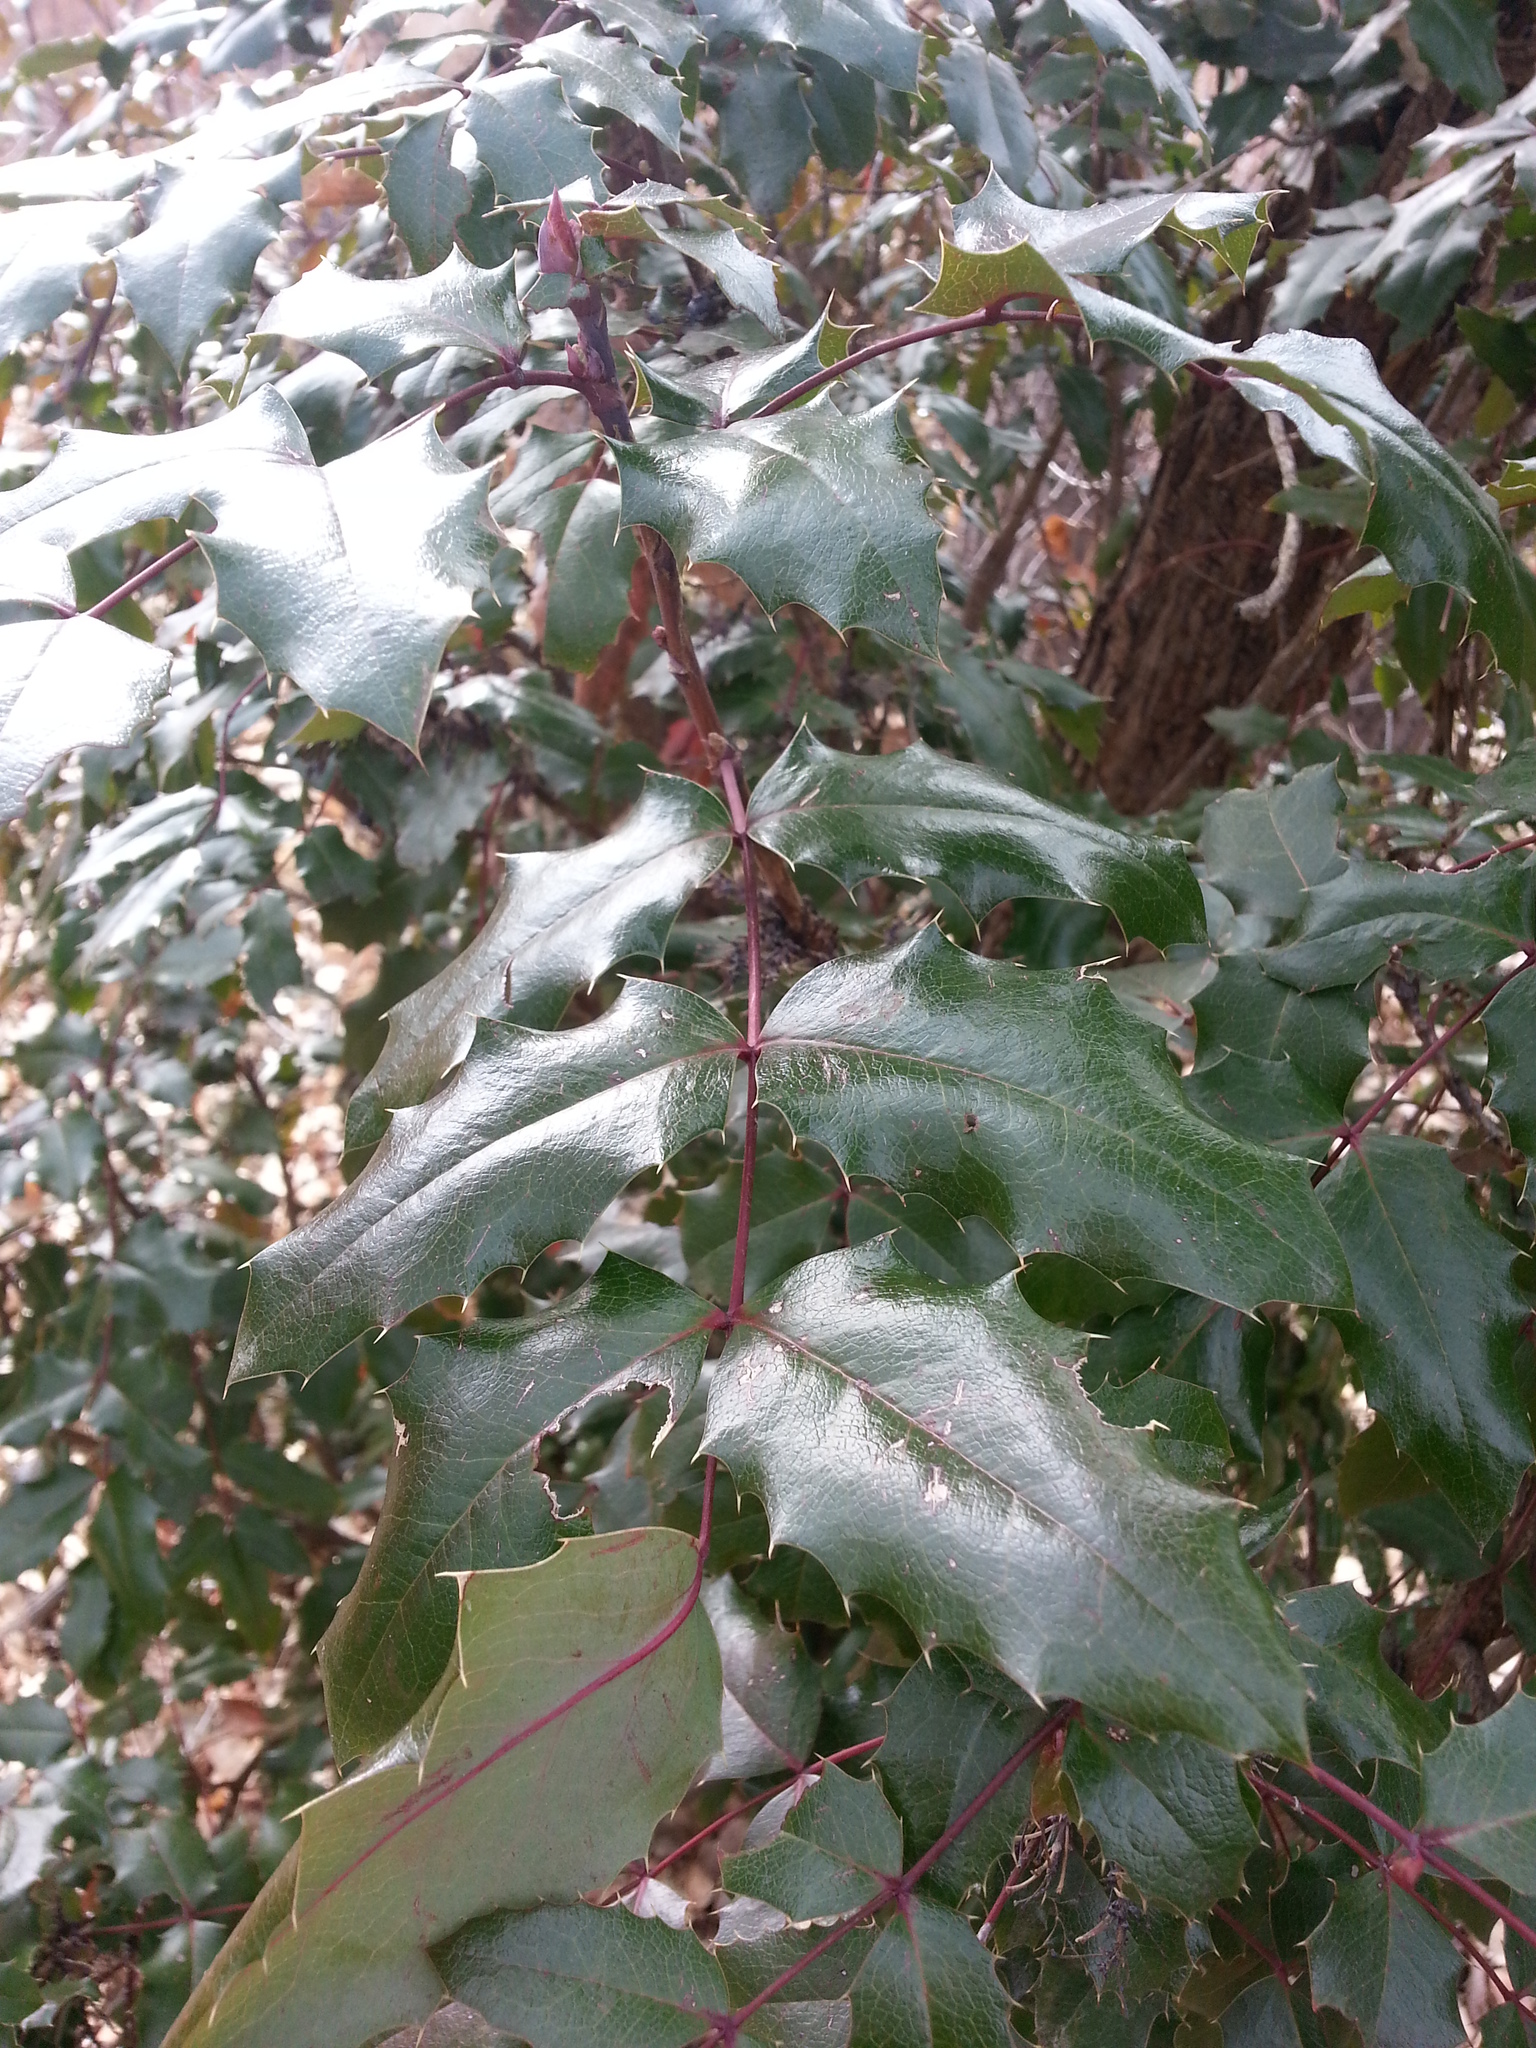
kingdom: Plantae
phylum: Tracheophyta
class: Magnoliopsida
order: Ranunculales
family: Berberidaceae
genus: Mahonia
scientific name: Mahonia aquifolium
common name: Oregon-grape
